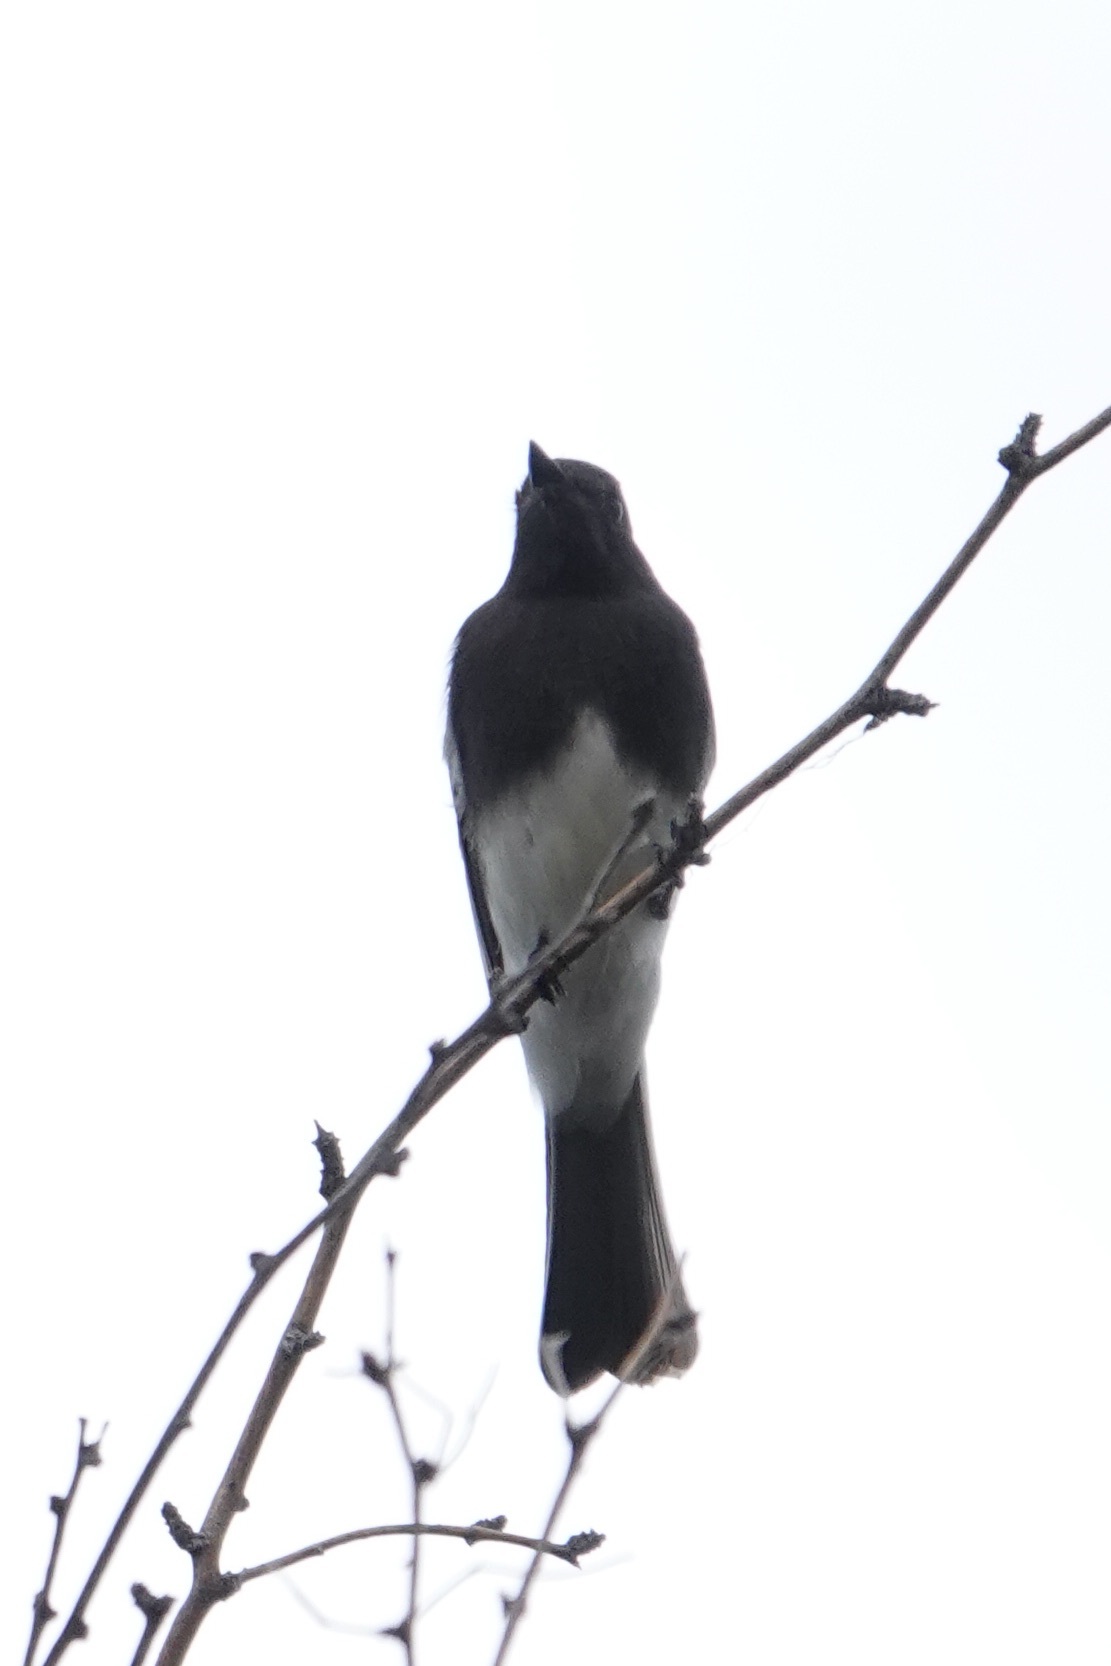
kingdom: Animalia
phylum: Chordata
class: Aves
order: Passeriformes
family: Tyrannidae
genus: Sayornis
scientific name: Sayornis nigricans
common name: Black phoebe
